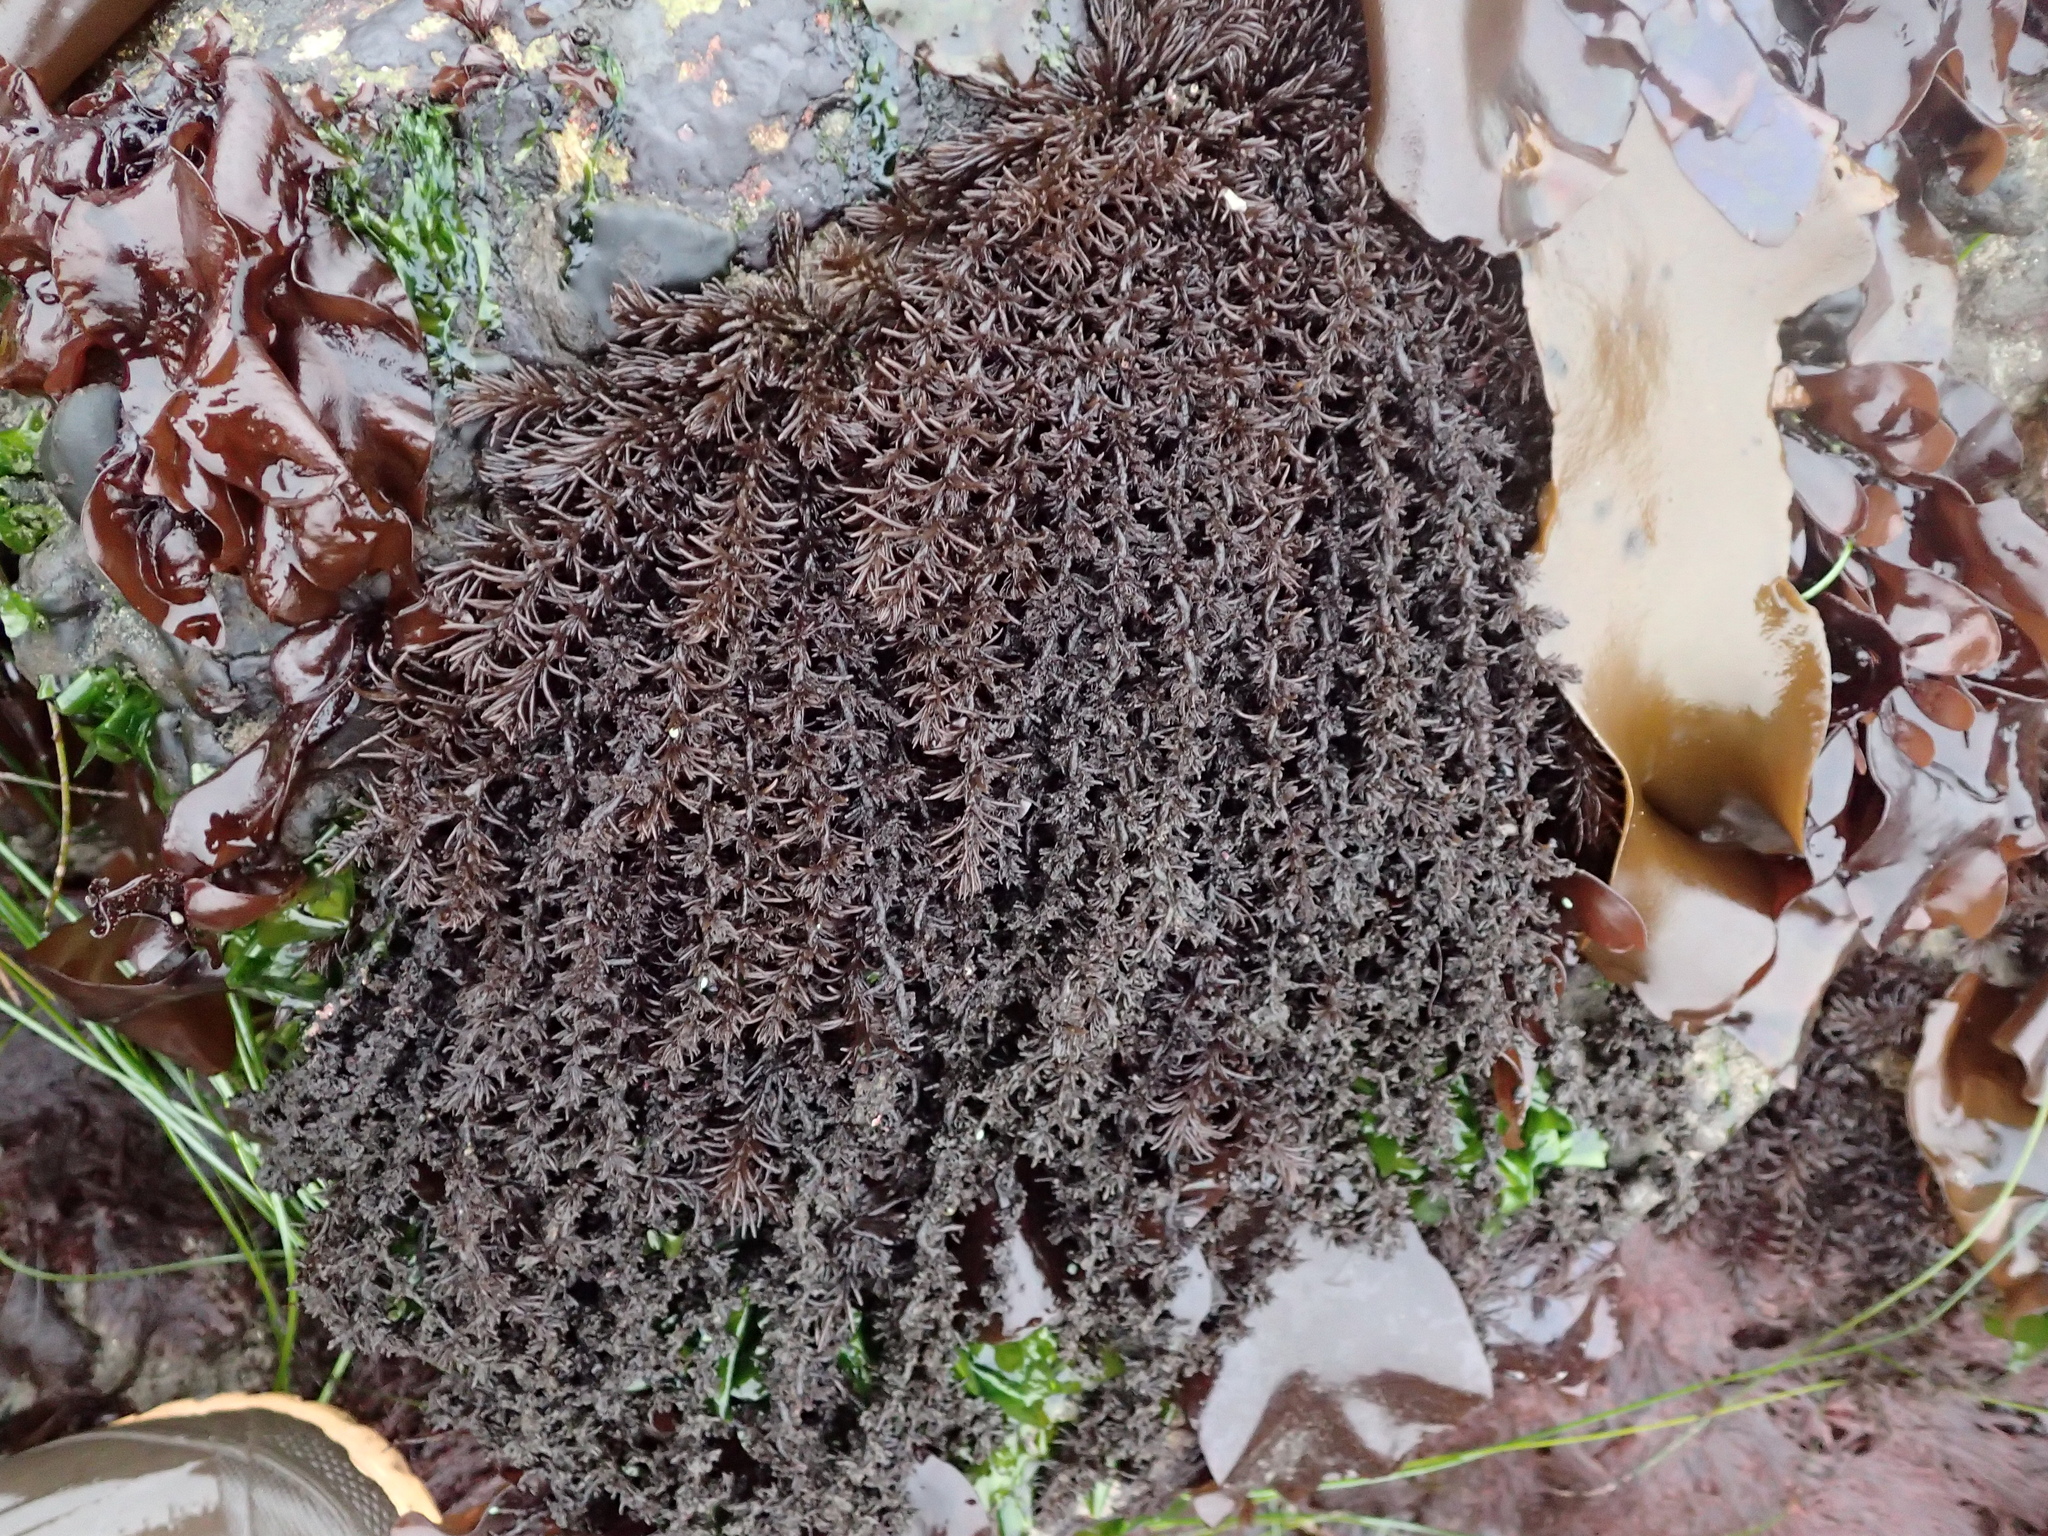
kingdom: Plantae
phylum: Rhodophyta
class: Florideophyceae
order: Ceramiales
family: Rhodomelaceae
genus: Neorhodomela
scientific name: Neorhodomela larix
